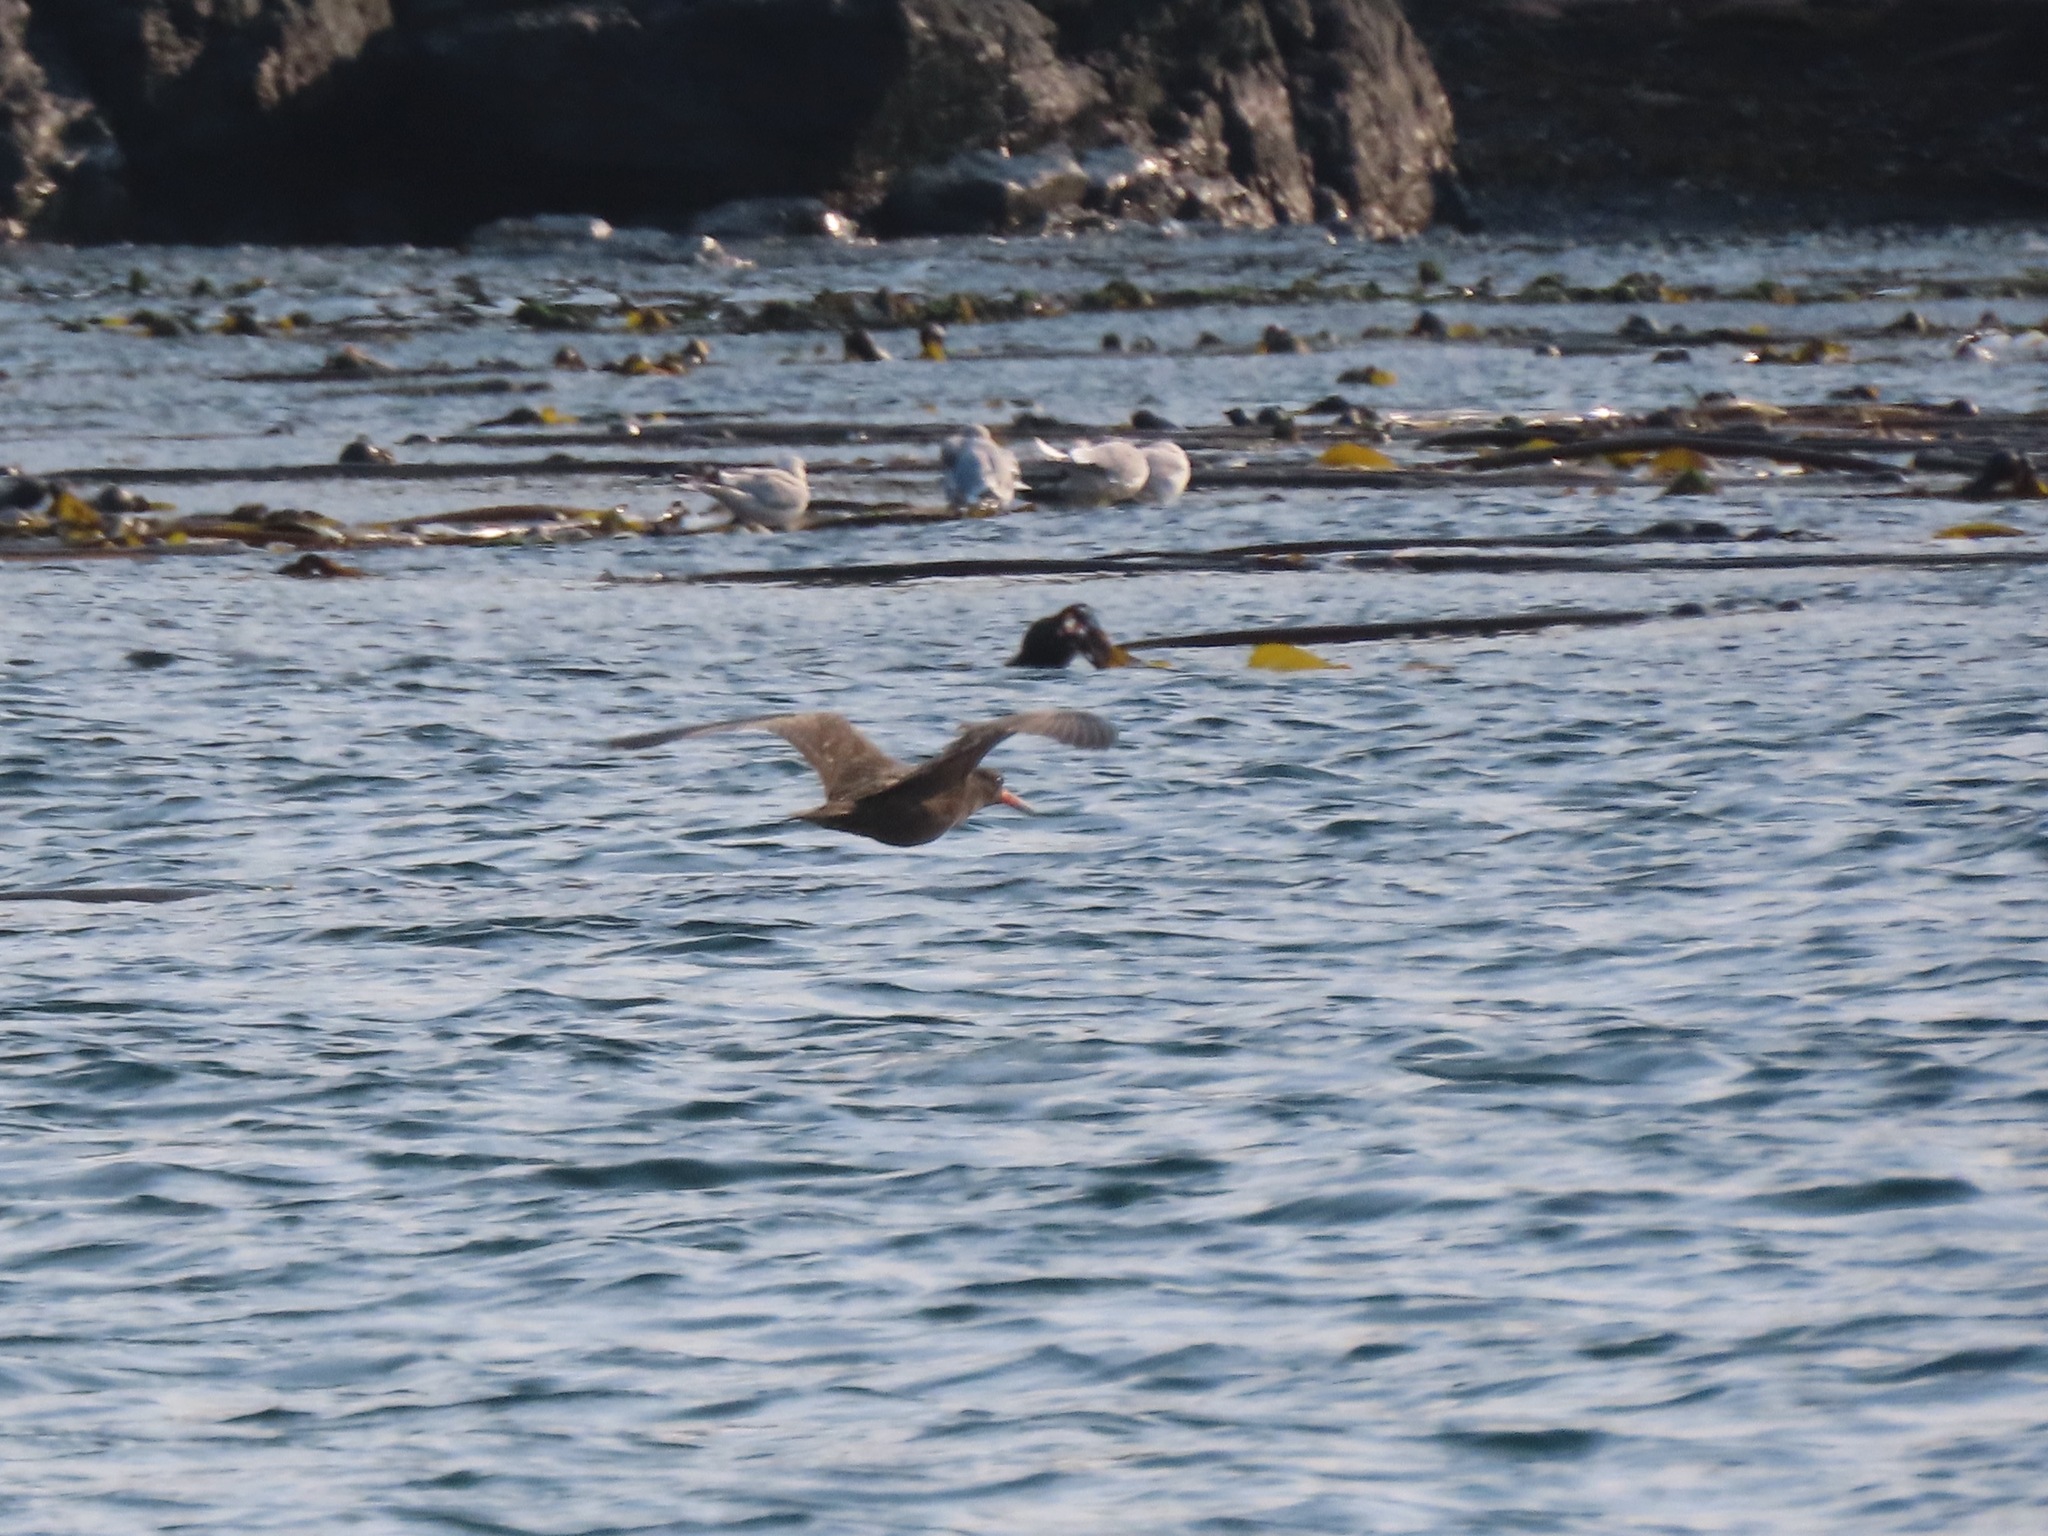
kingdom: Animalia
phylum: Chordata
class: Aves
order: Charadriiformes
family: Haematopodidae
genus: Haematopus
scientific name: Haematopus bachmani
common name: Black oystercatcher
